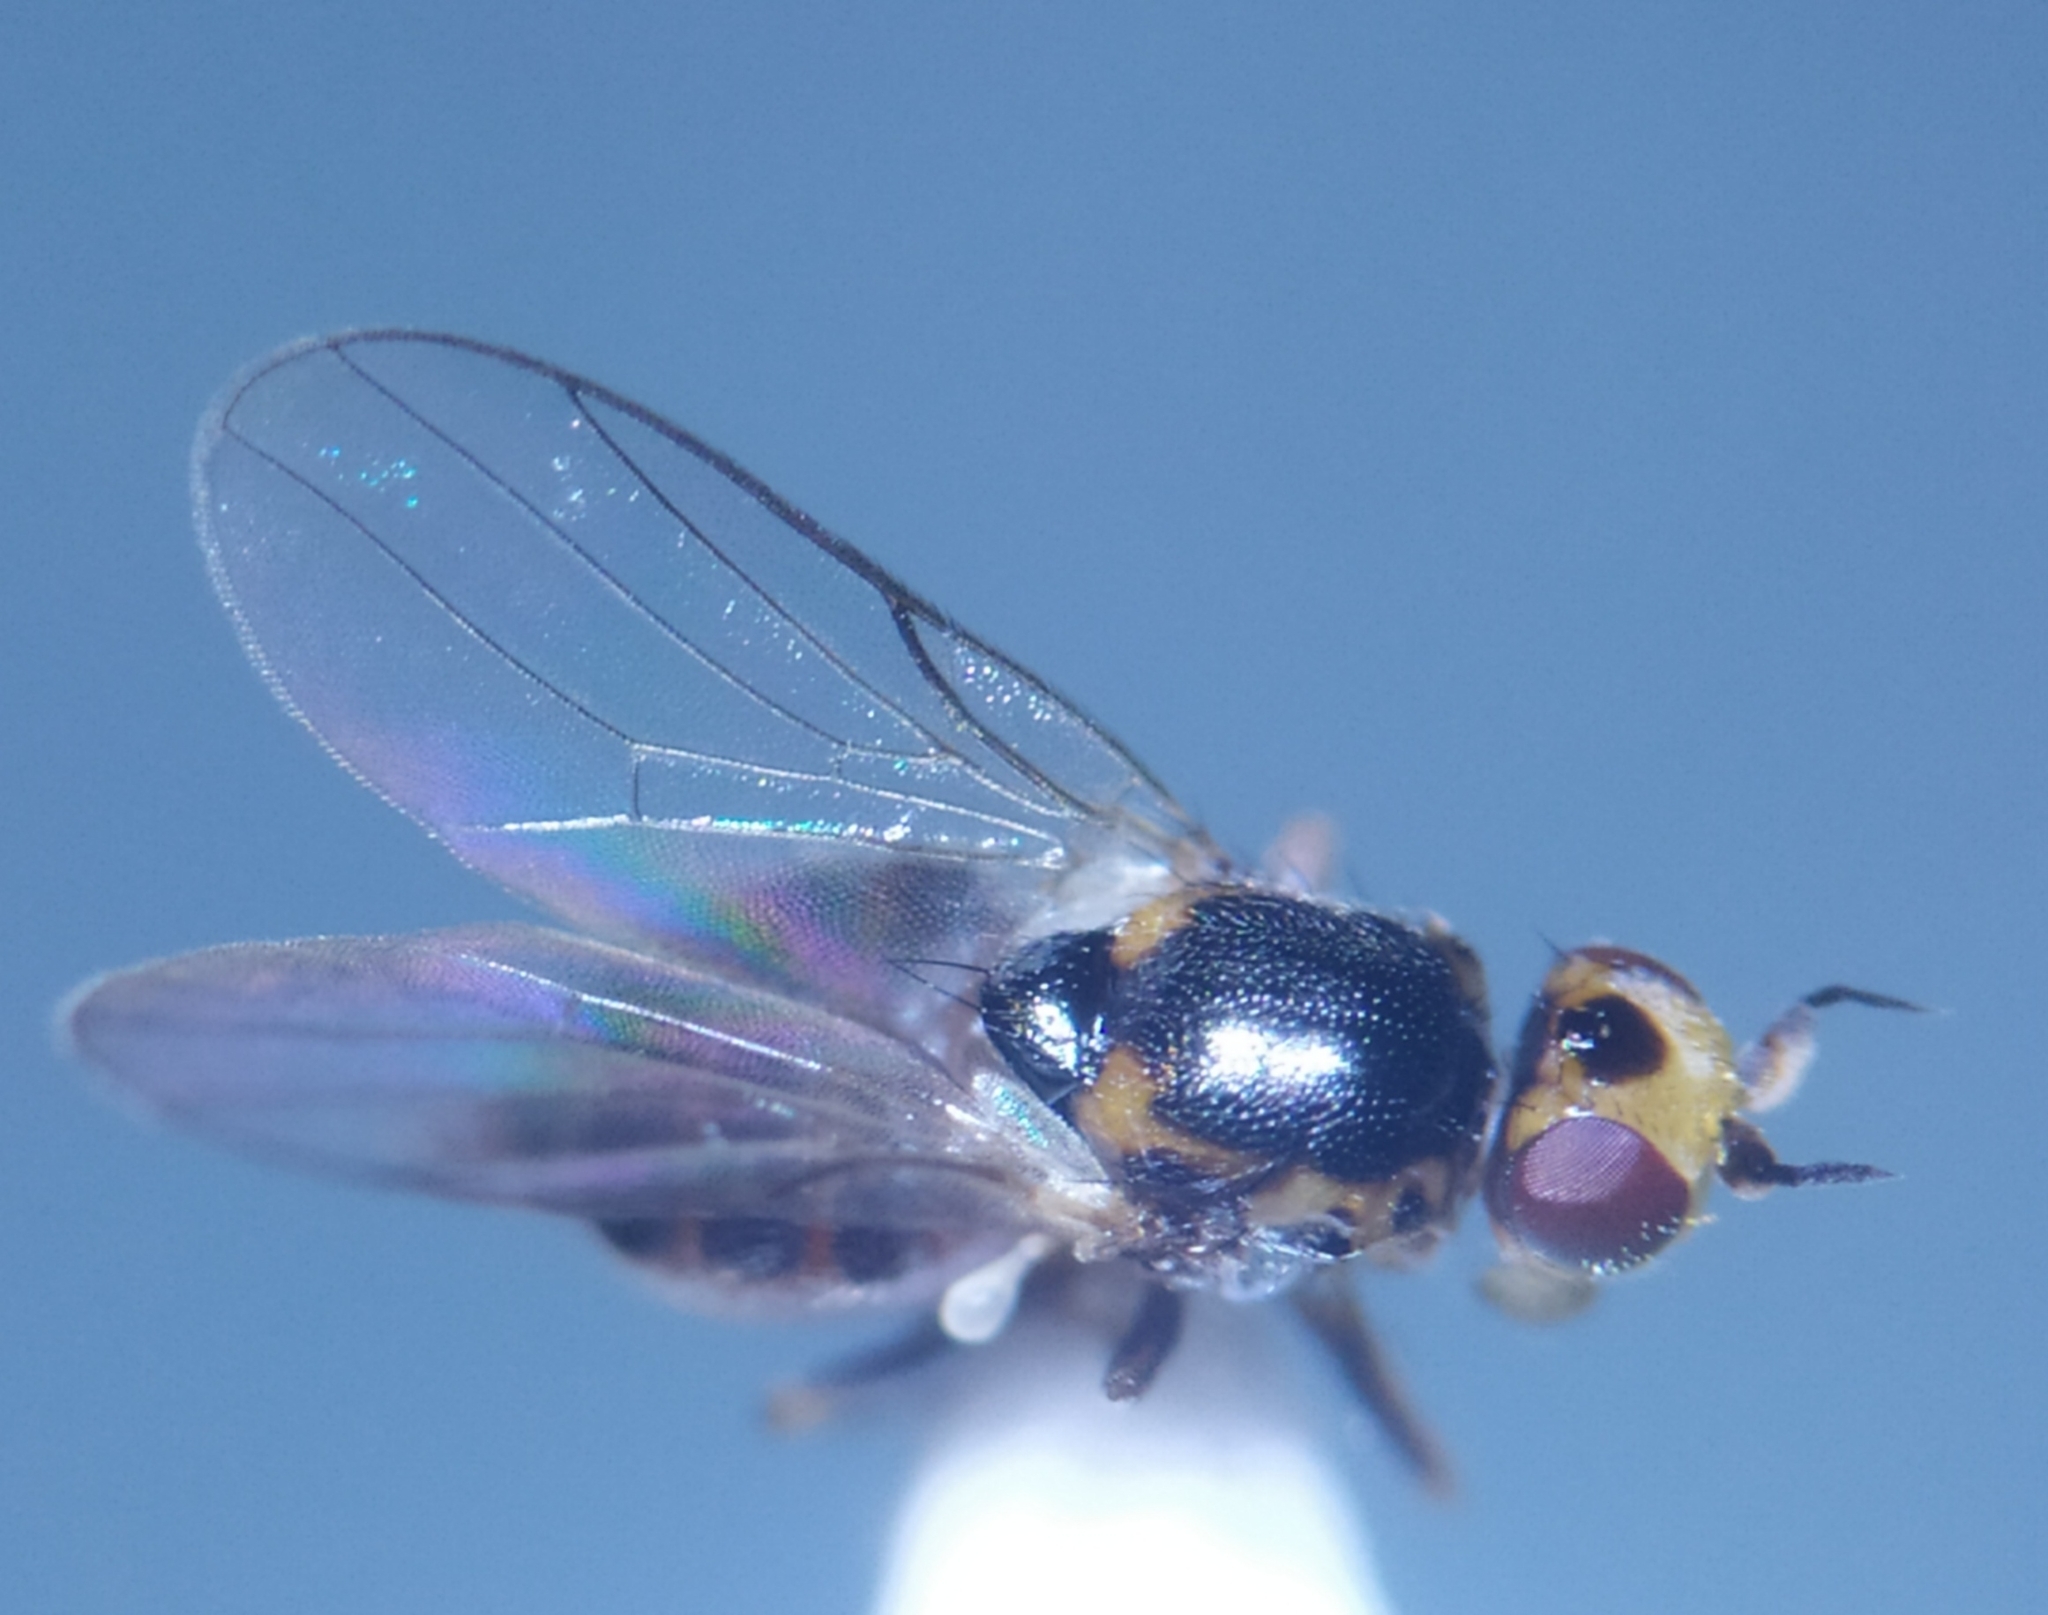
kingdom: Animalia
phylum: Arthropoda
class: Insecta
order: Diptera
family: Chloropidae
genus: Gampsocera
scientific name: Gampsocera numerata
